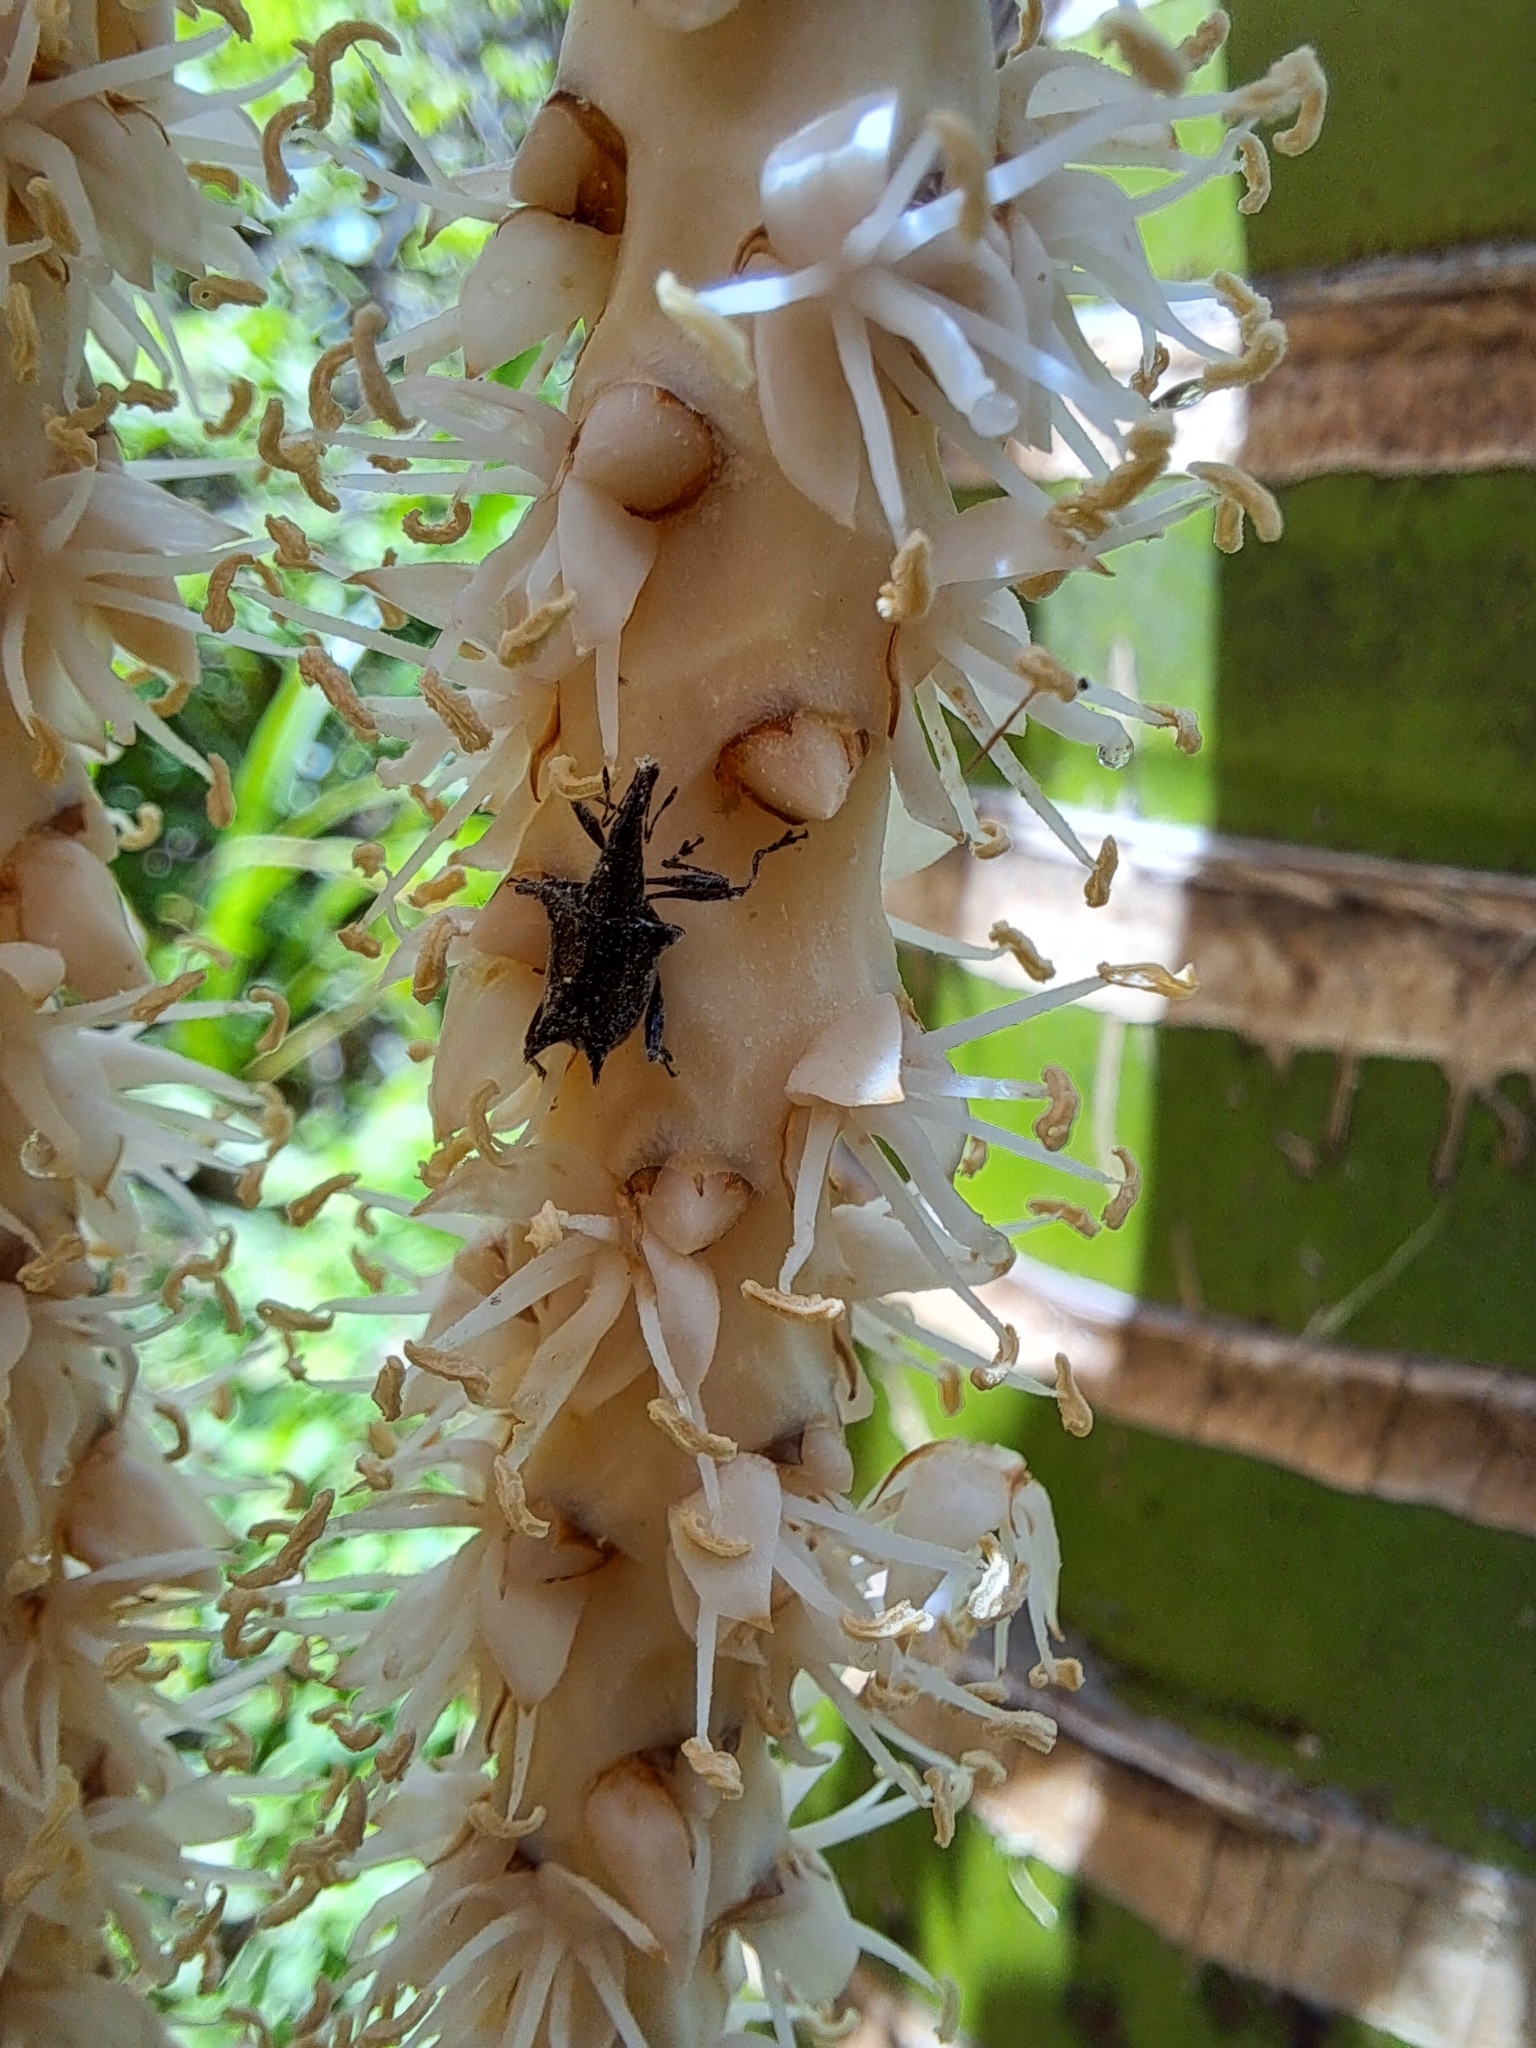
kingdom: Animalia
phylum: Arthropoda
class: Insecta
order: Coleoptera
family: Curculionidae
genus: Scolopterus
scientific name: Scolopterus aequus
